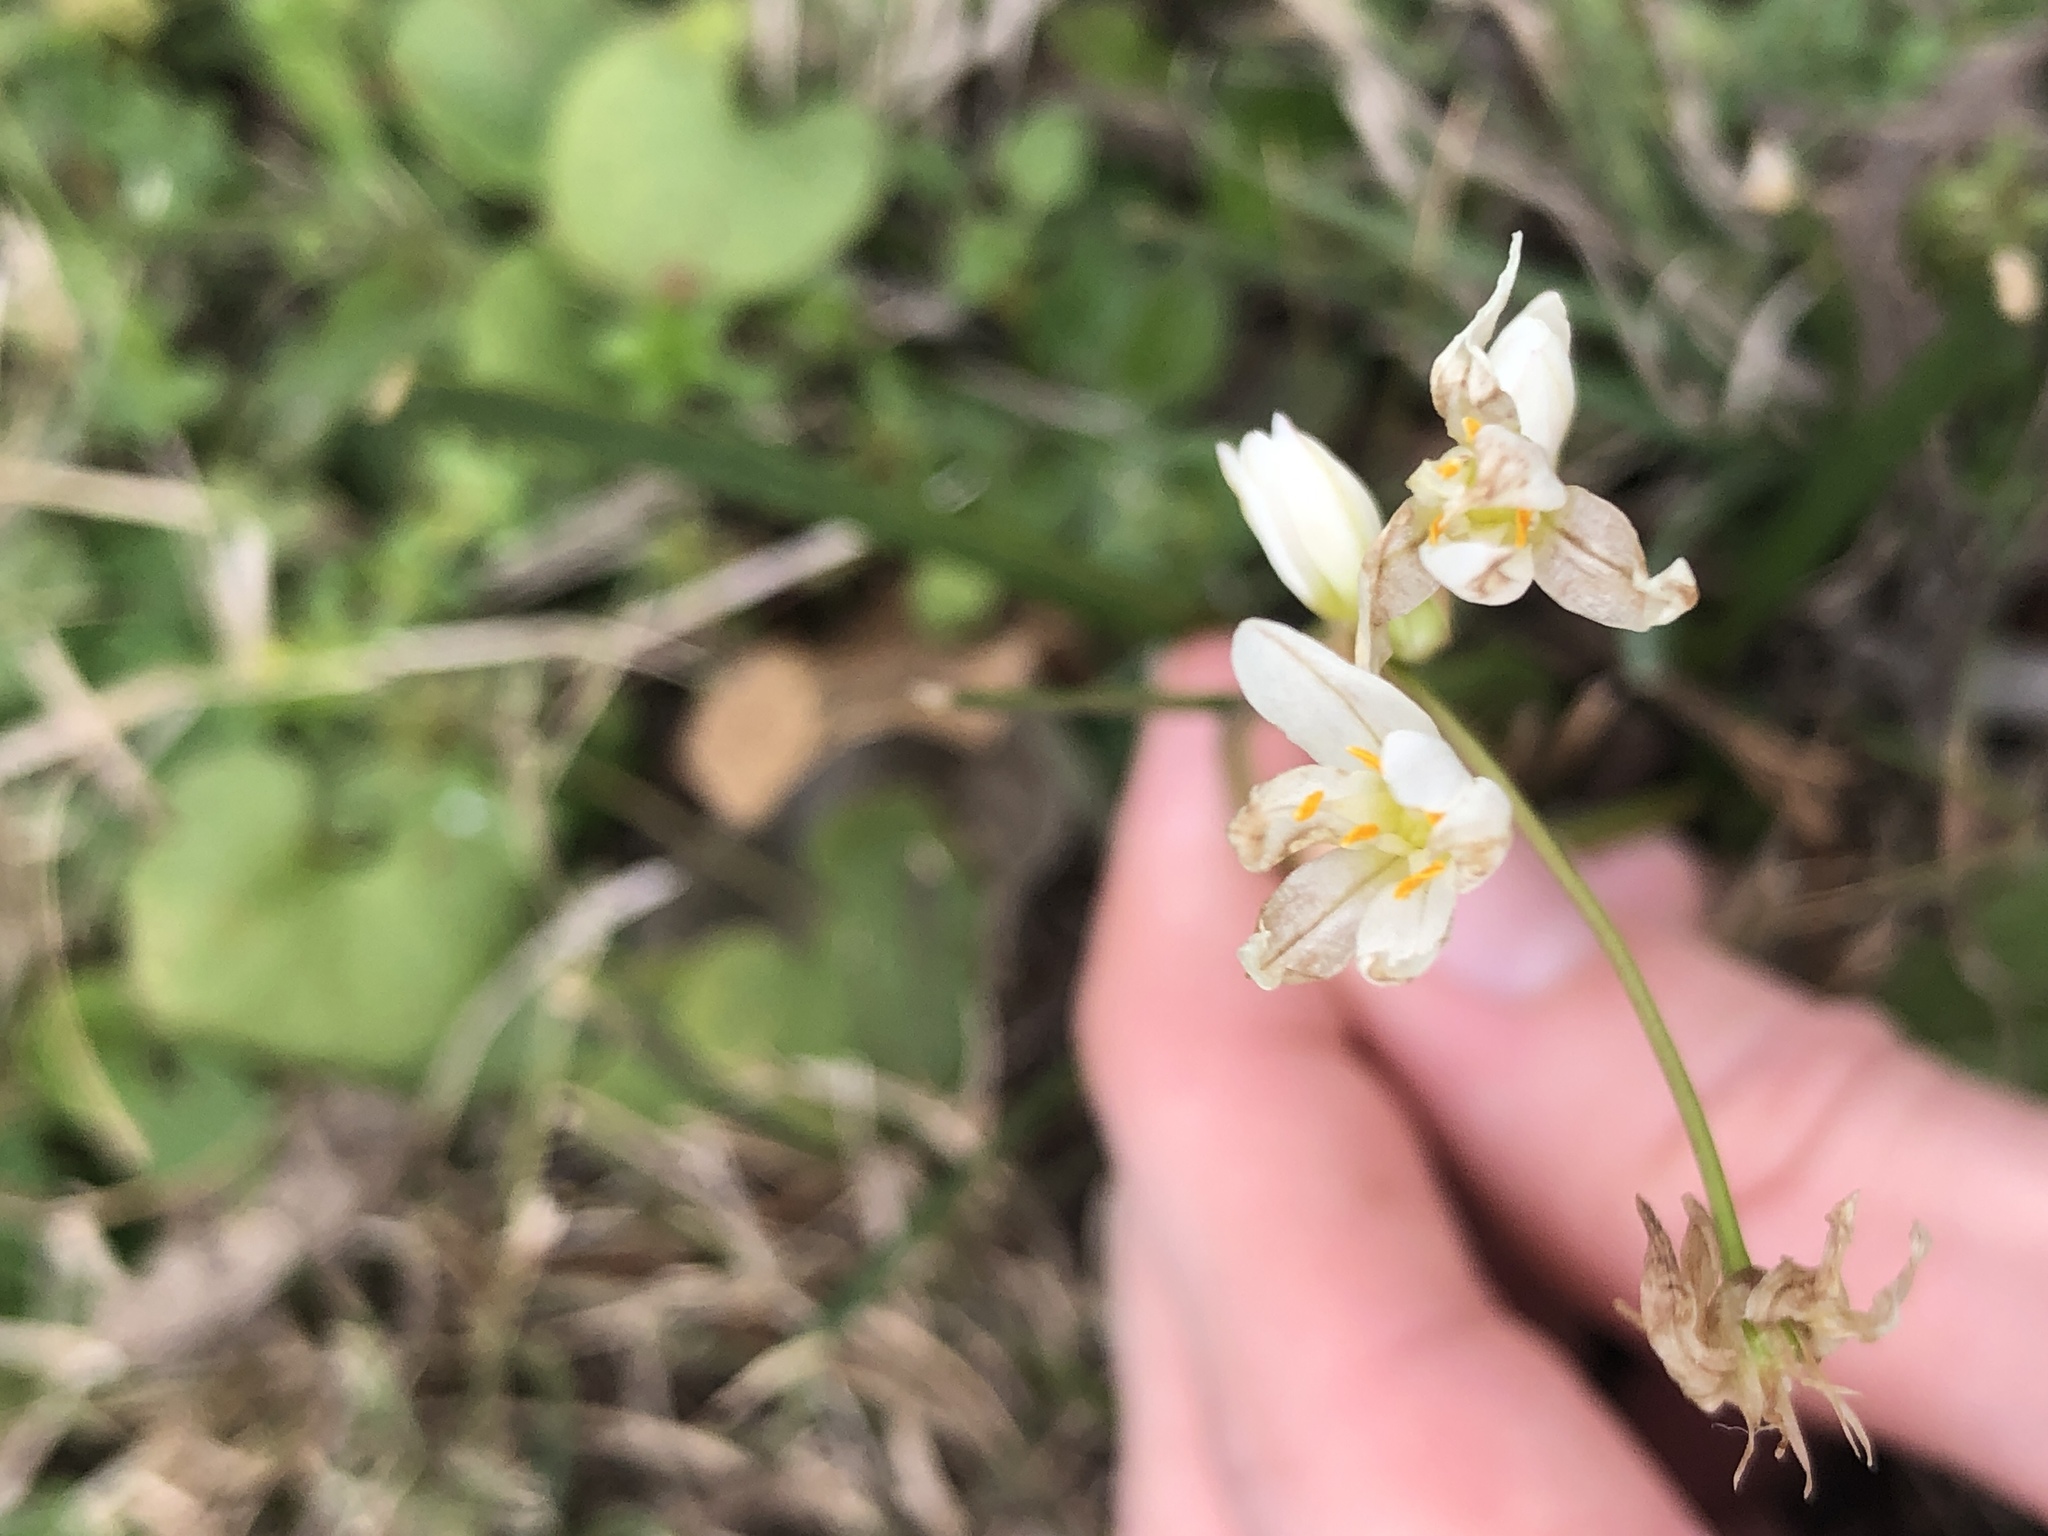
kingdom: Plantae
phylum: Tracheophyta
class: Liliopsida
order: Asparagales
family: Amaryllidaceae
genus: Nothoscordum
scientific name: Nothoscordum bivalve
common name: Crow-poison
